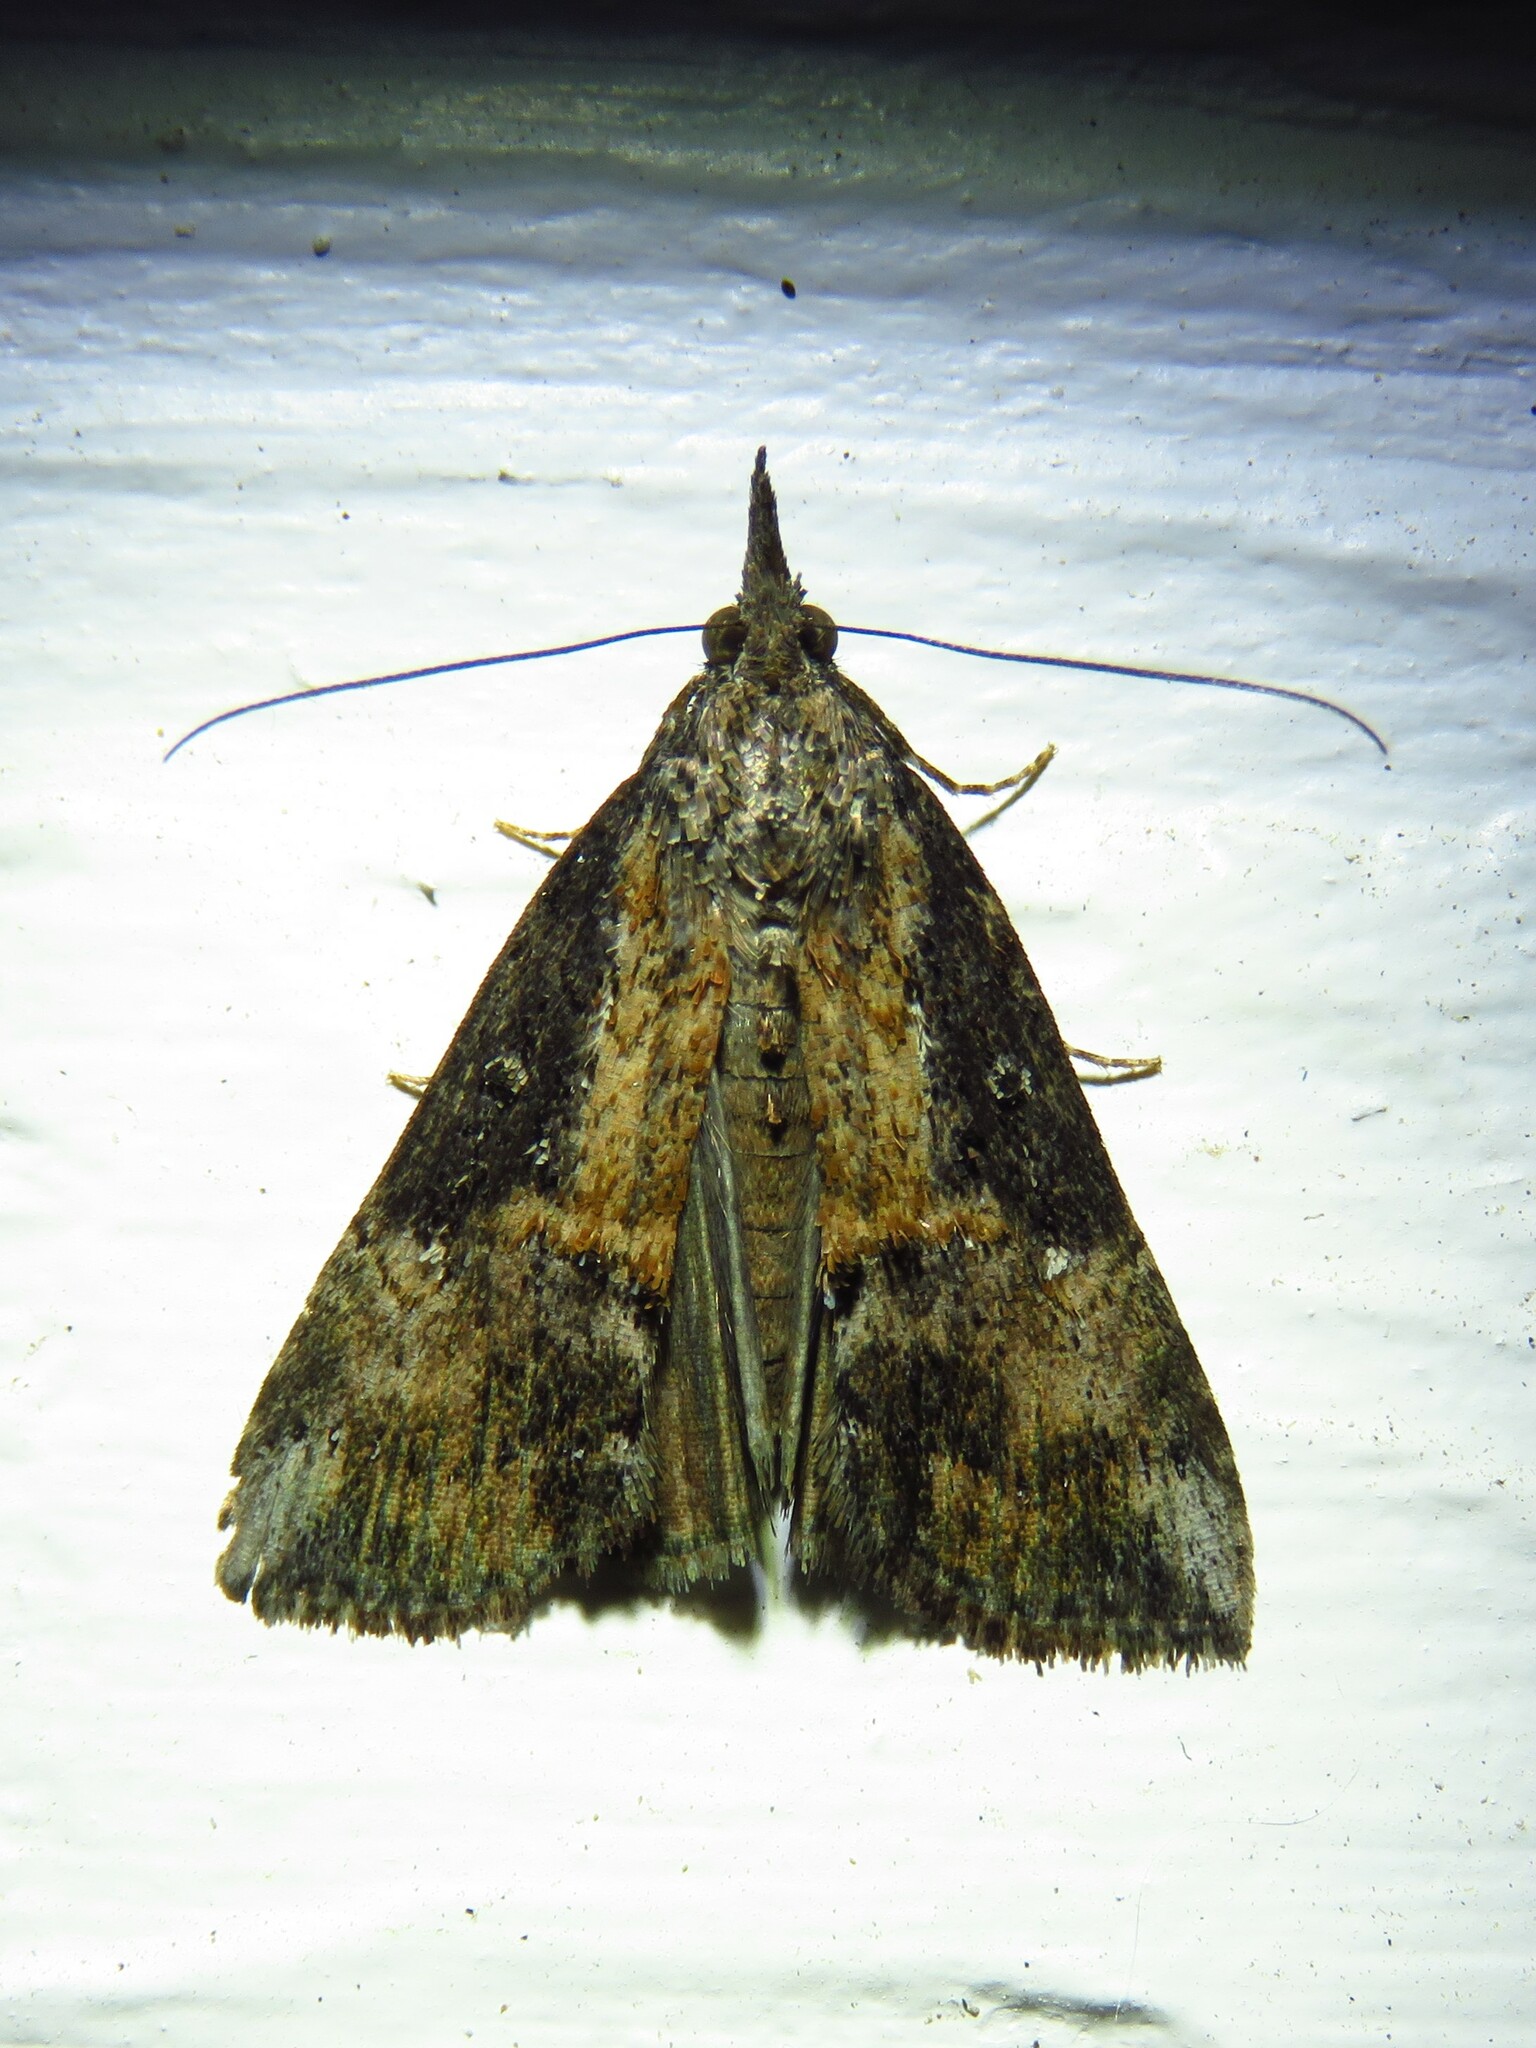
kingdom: Animalia
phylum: Arthropoda
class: Insecta
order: Lepidoptera
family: Erebidae
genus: Hypena
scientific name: Hypena scabra
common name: Green cloverworm
